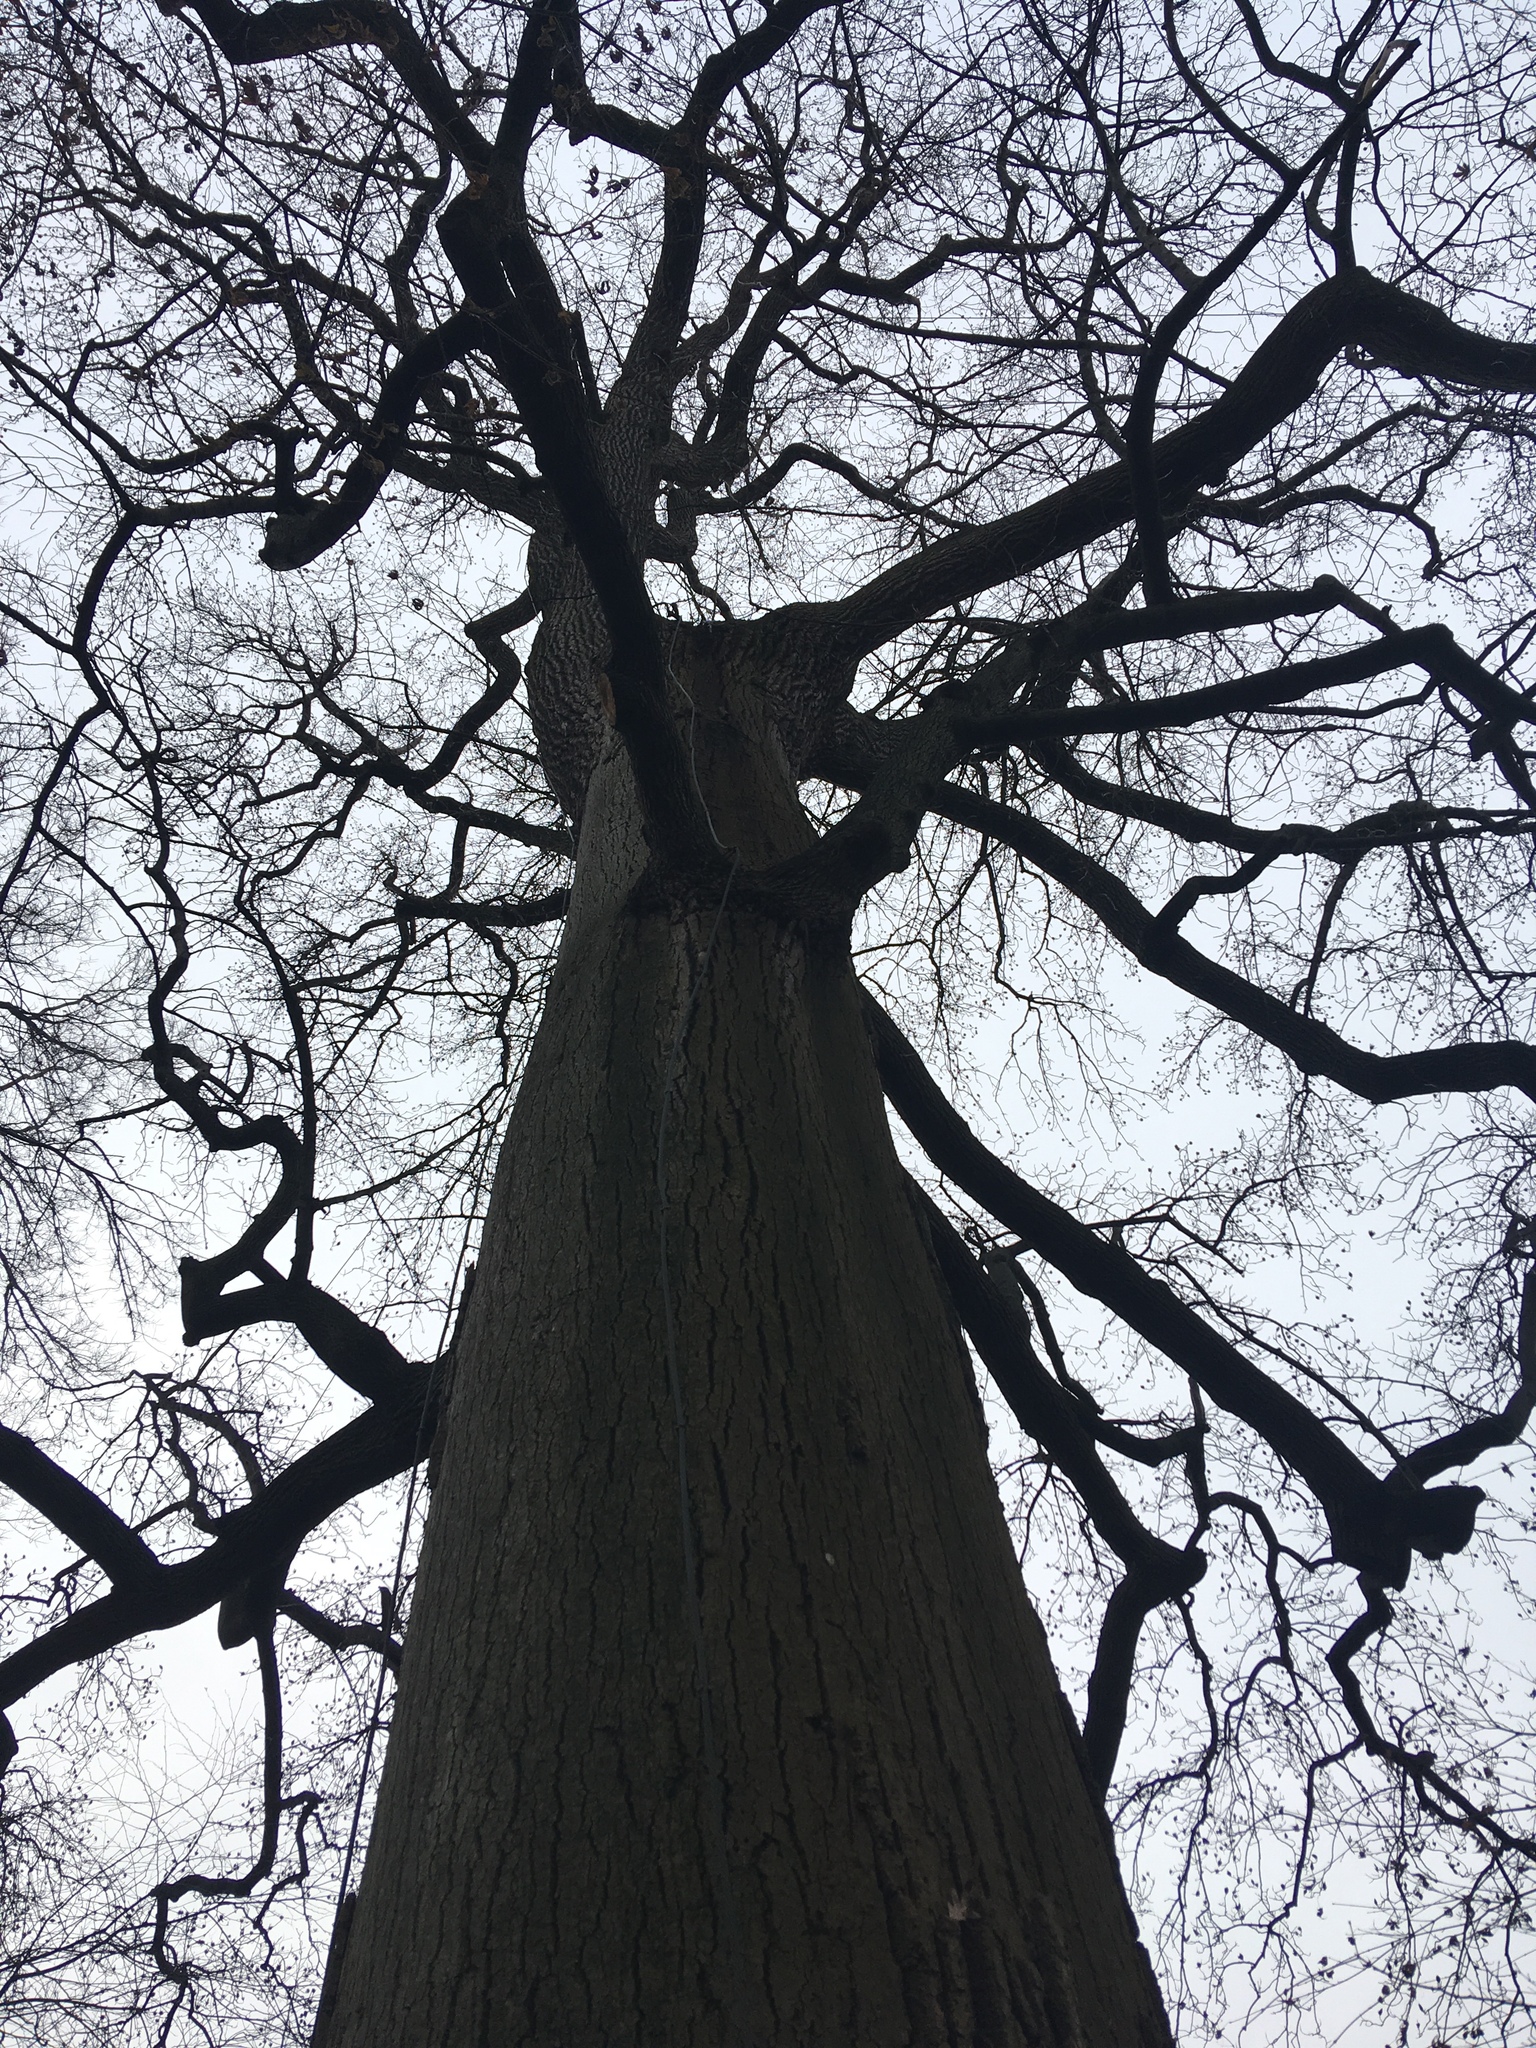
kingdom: Plantae
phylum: Tracheophyta
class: Magnoliopsida
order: Magnoliales
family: Magnoliaceae
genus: Liriodendron
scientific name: Liriodendron tulipifera
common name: Tulip tree
